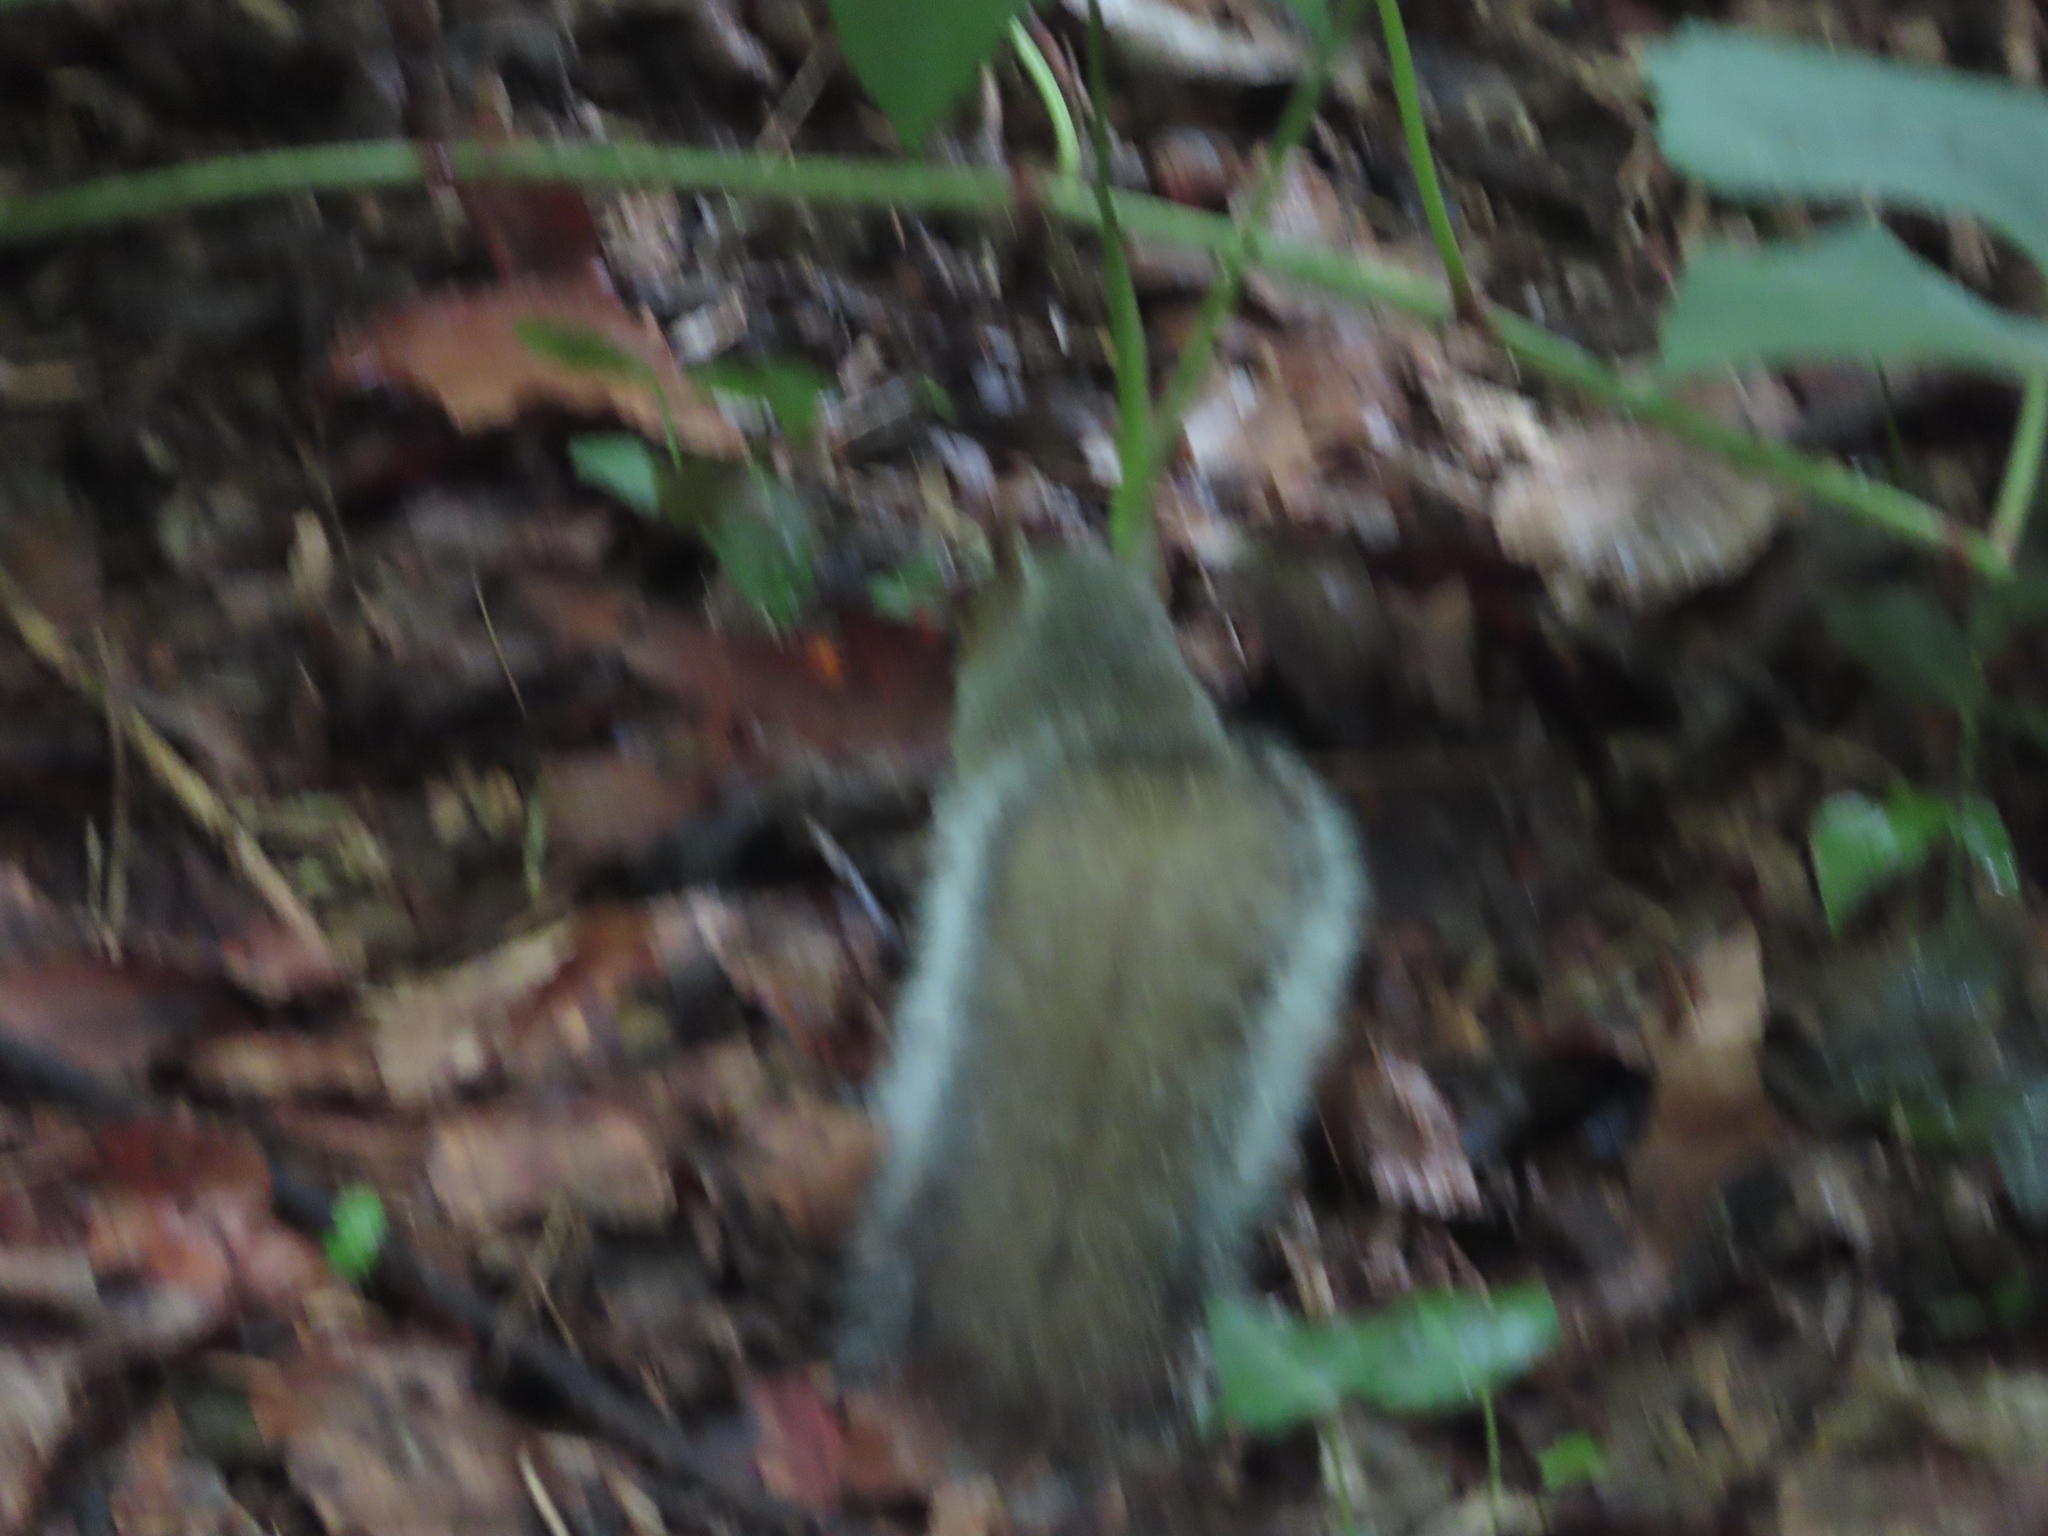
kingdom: Animalia
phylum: Chordata
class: Mammalia
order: Rodentia
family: Sciuridae
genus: Sciurus
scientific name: Sciurus carolinensis
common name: Eastern gray squirrel
